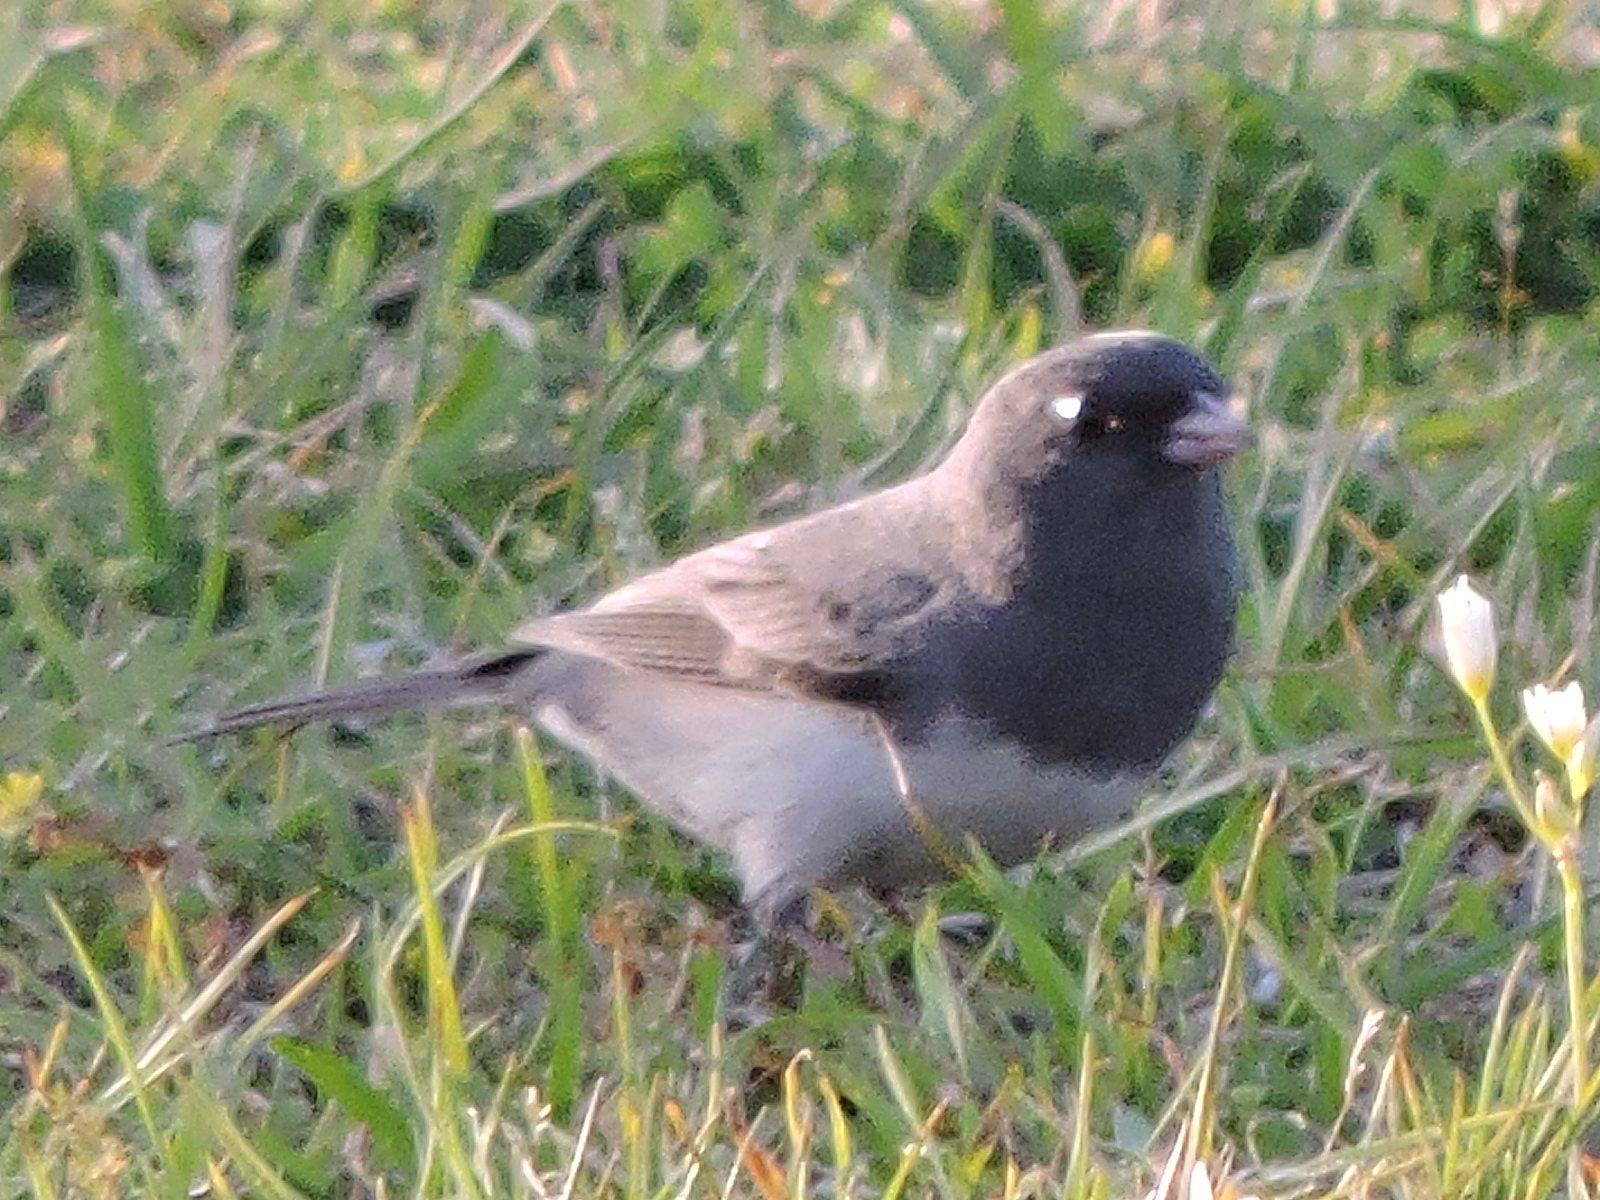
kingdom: Animalia
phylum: Chordata
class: Aves
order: Passeriformes
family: Passerellidae
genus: Junco
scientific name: Junco hyemalis
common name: Dark-eyed junco
